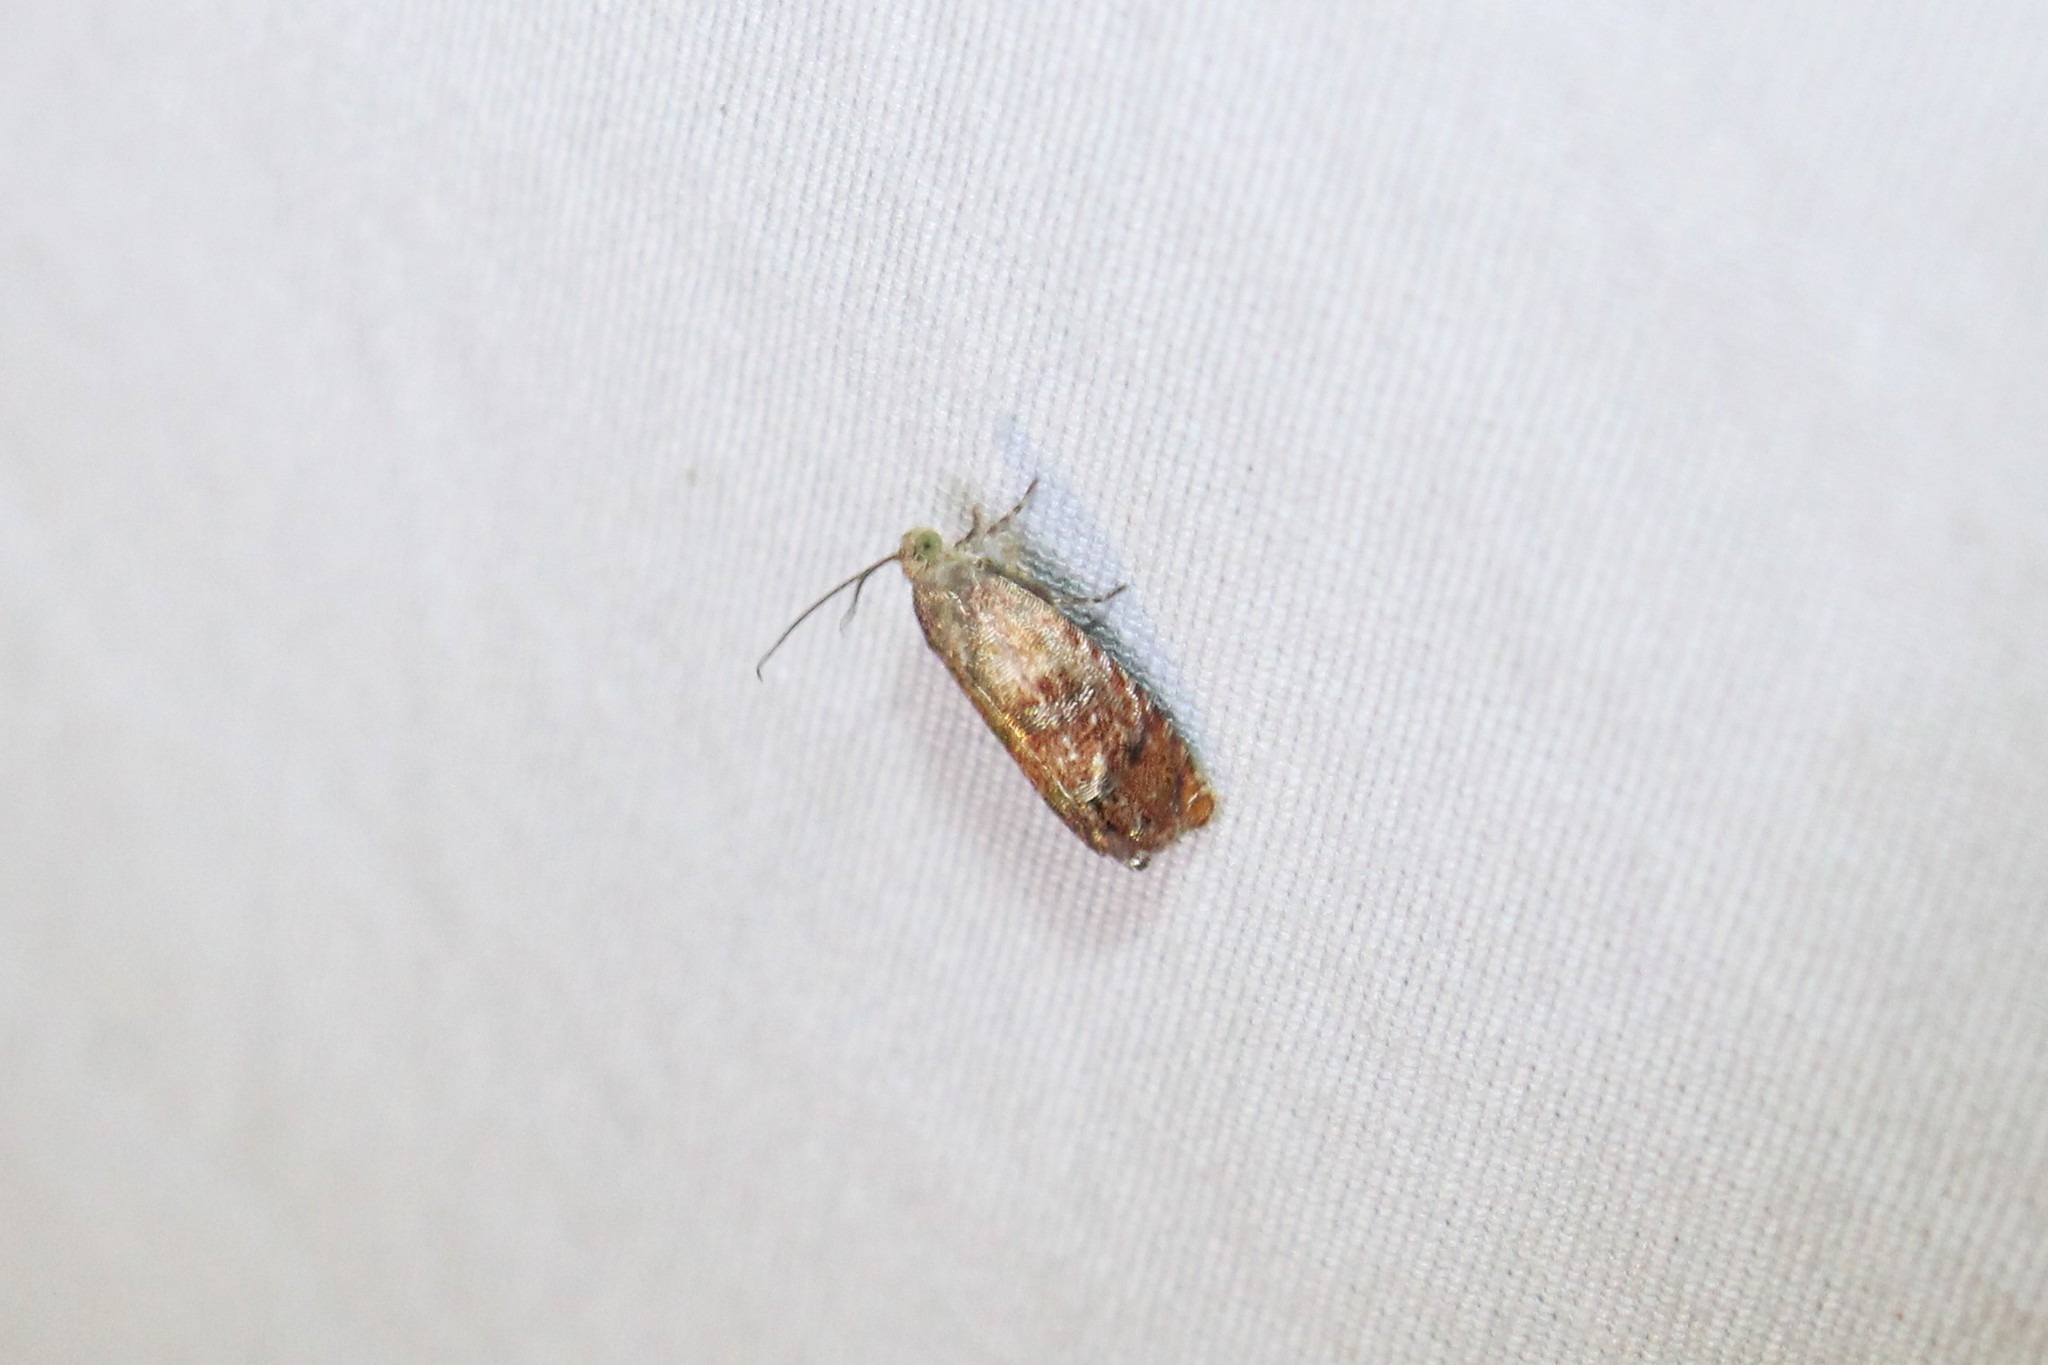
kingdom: Animalia
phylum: Arthropoda
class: Insecta
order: Lepidoptera
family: Tortricidae
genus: Cydia
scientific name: Cydia latiferreana
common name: Filbertworm moth
